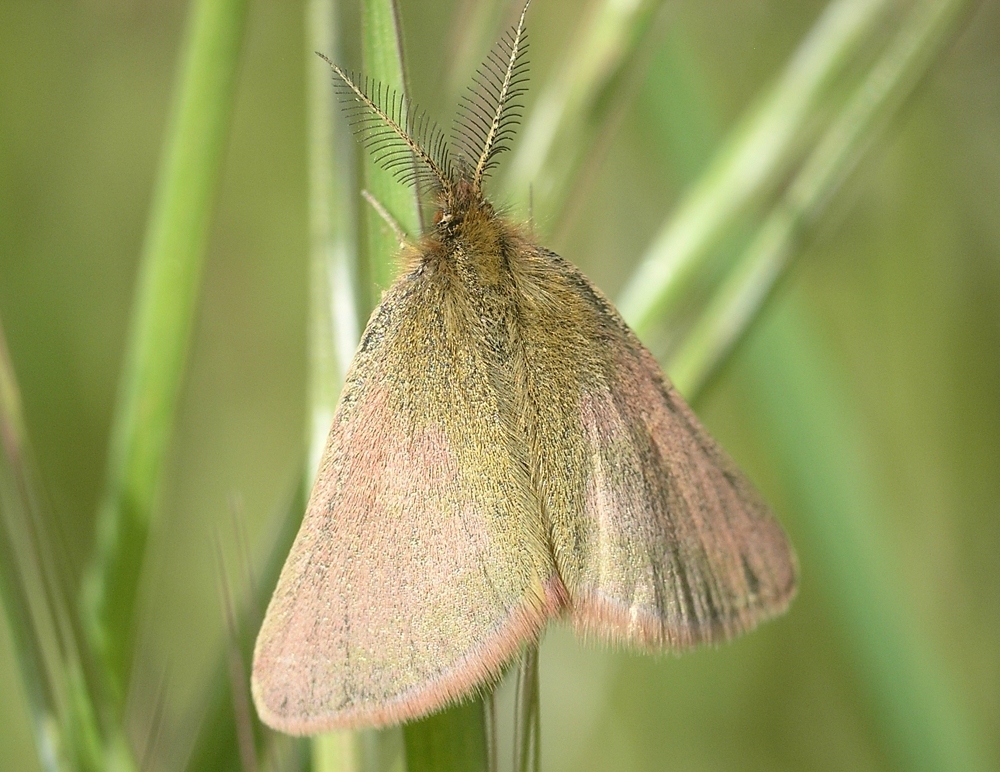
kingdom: Animalia
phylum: Arthropoda
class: Insecta
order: Lepidoptera
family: Geometridae
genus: Lythria
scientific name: Lythria purpuraria
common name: Purple-barred yellow
